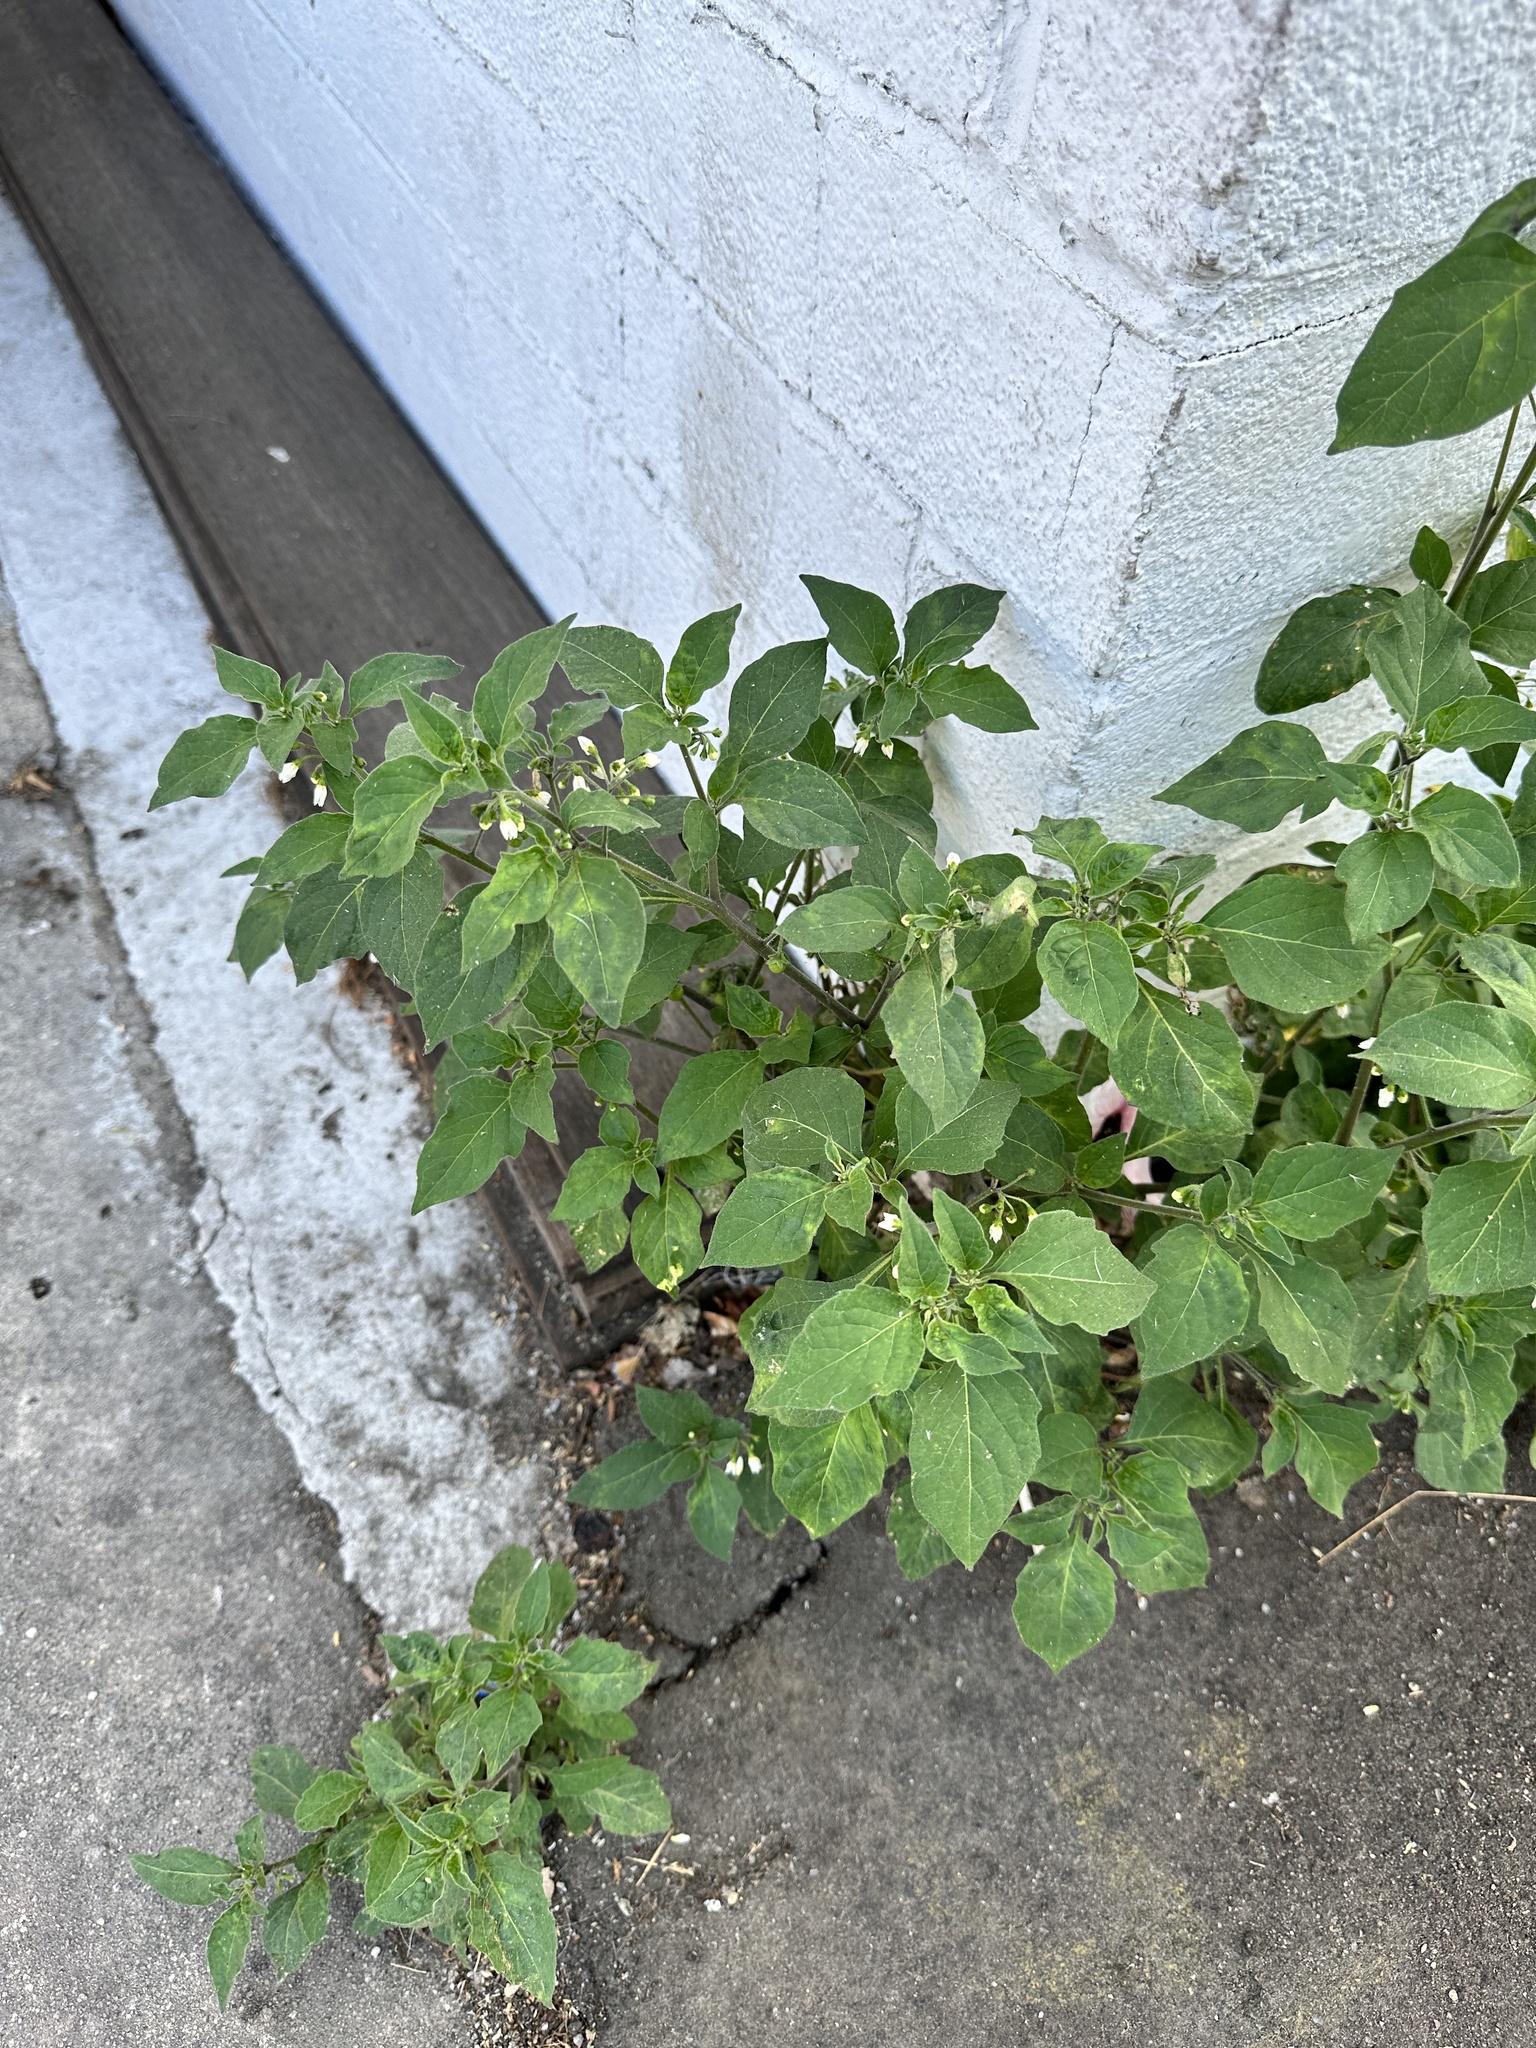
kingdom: Plantae
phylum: Tracheophyta
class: Magnoliopsida
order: Solanales
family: Solanaceae
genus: Solanum
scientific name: Solanum nigrum
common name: Black nightshade
